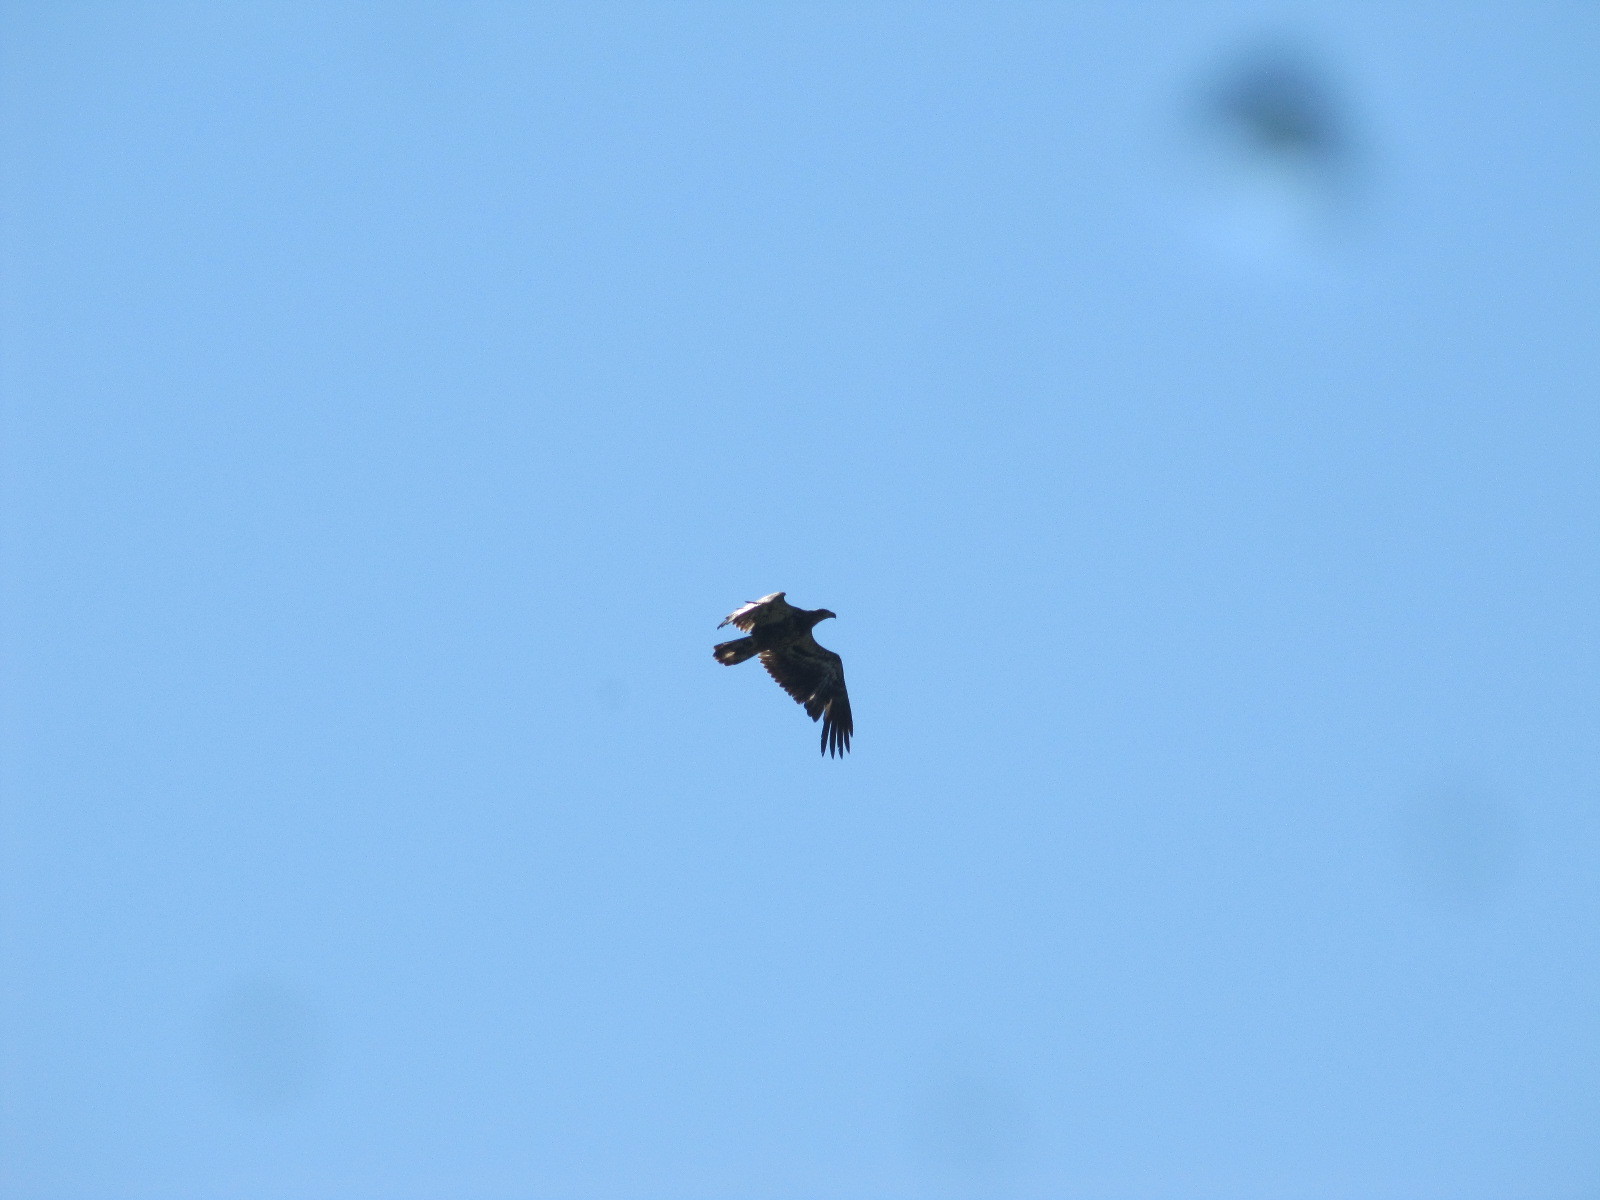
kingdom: Animalia
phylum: Chordata
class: Aves
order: Accipitriformes
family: Accipitridae
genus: Haliaeetus
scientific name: Haliaeetus leucocephalus
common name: Bald eagle
